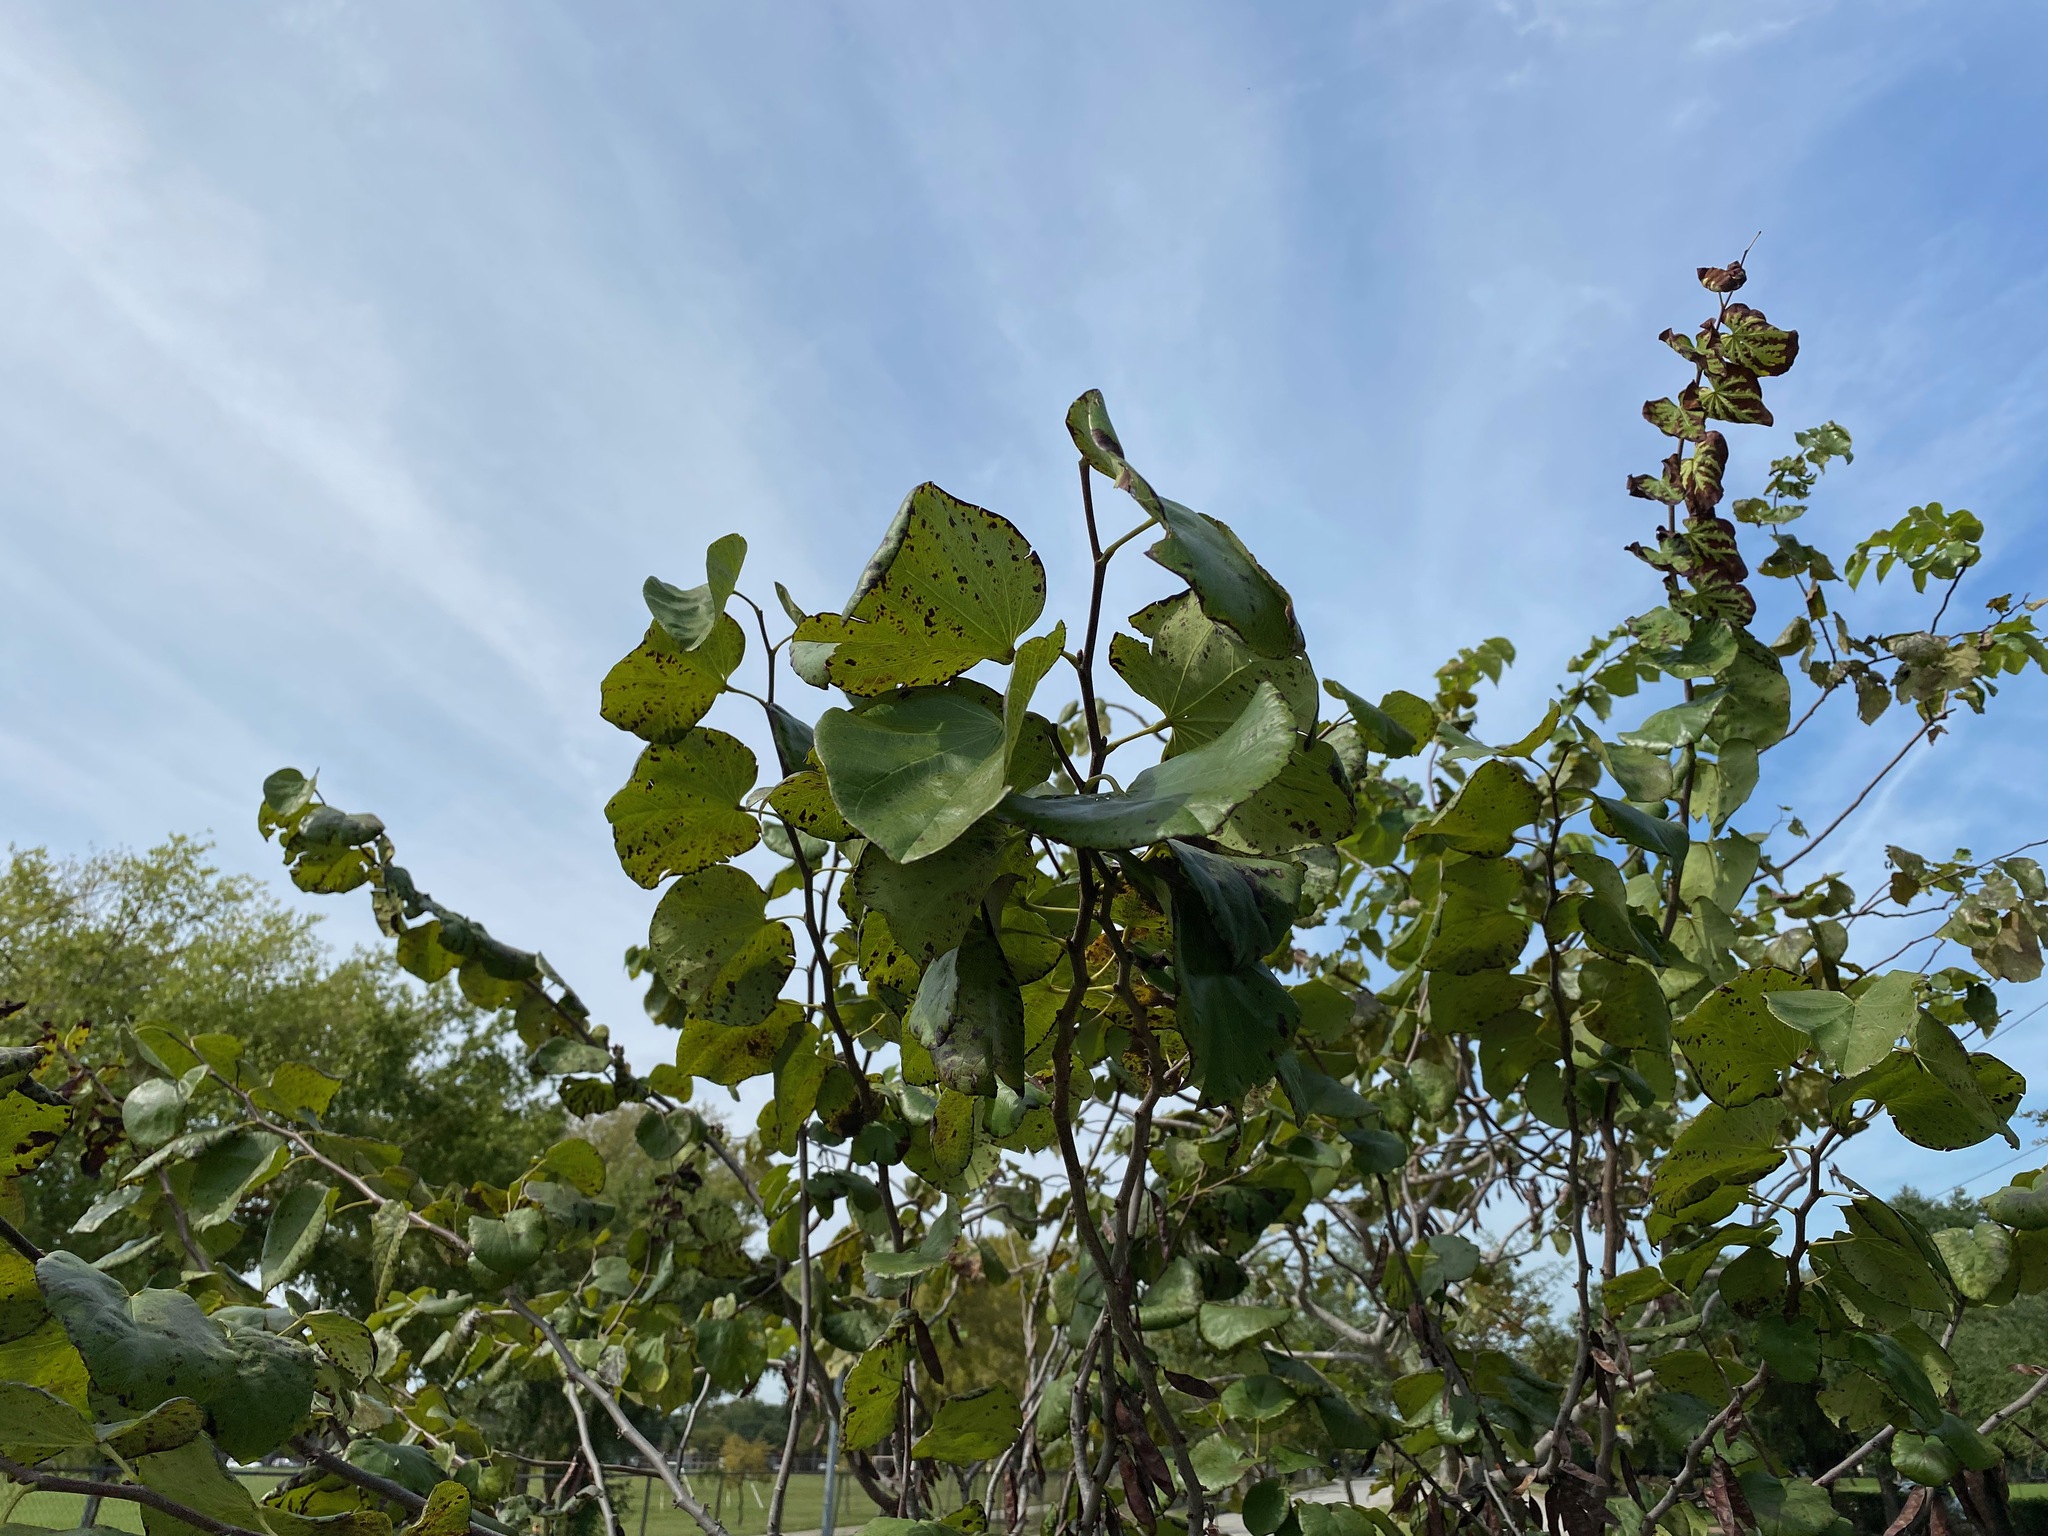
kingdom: Plantae
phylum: Tracheophyta
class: Magnoliopsida
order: Fabales
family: Fabaceae
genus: Cercis
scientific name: Cercis canadensis
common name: Eastern redbud
